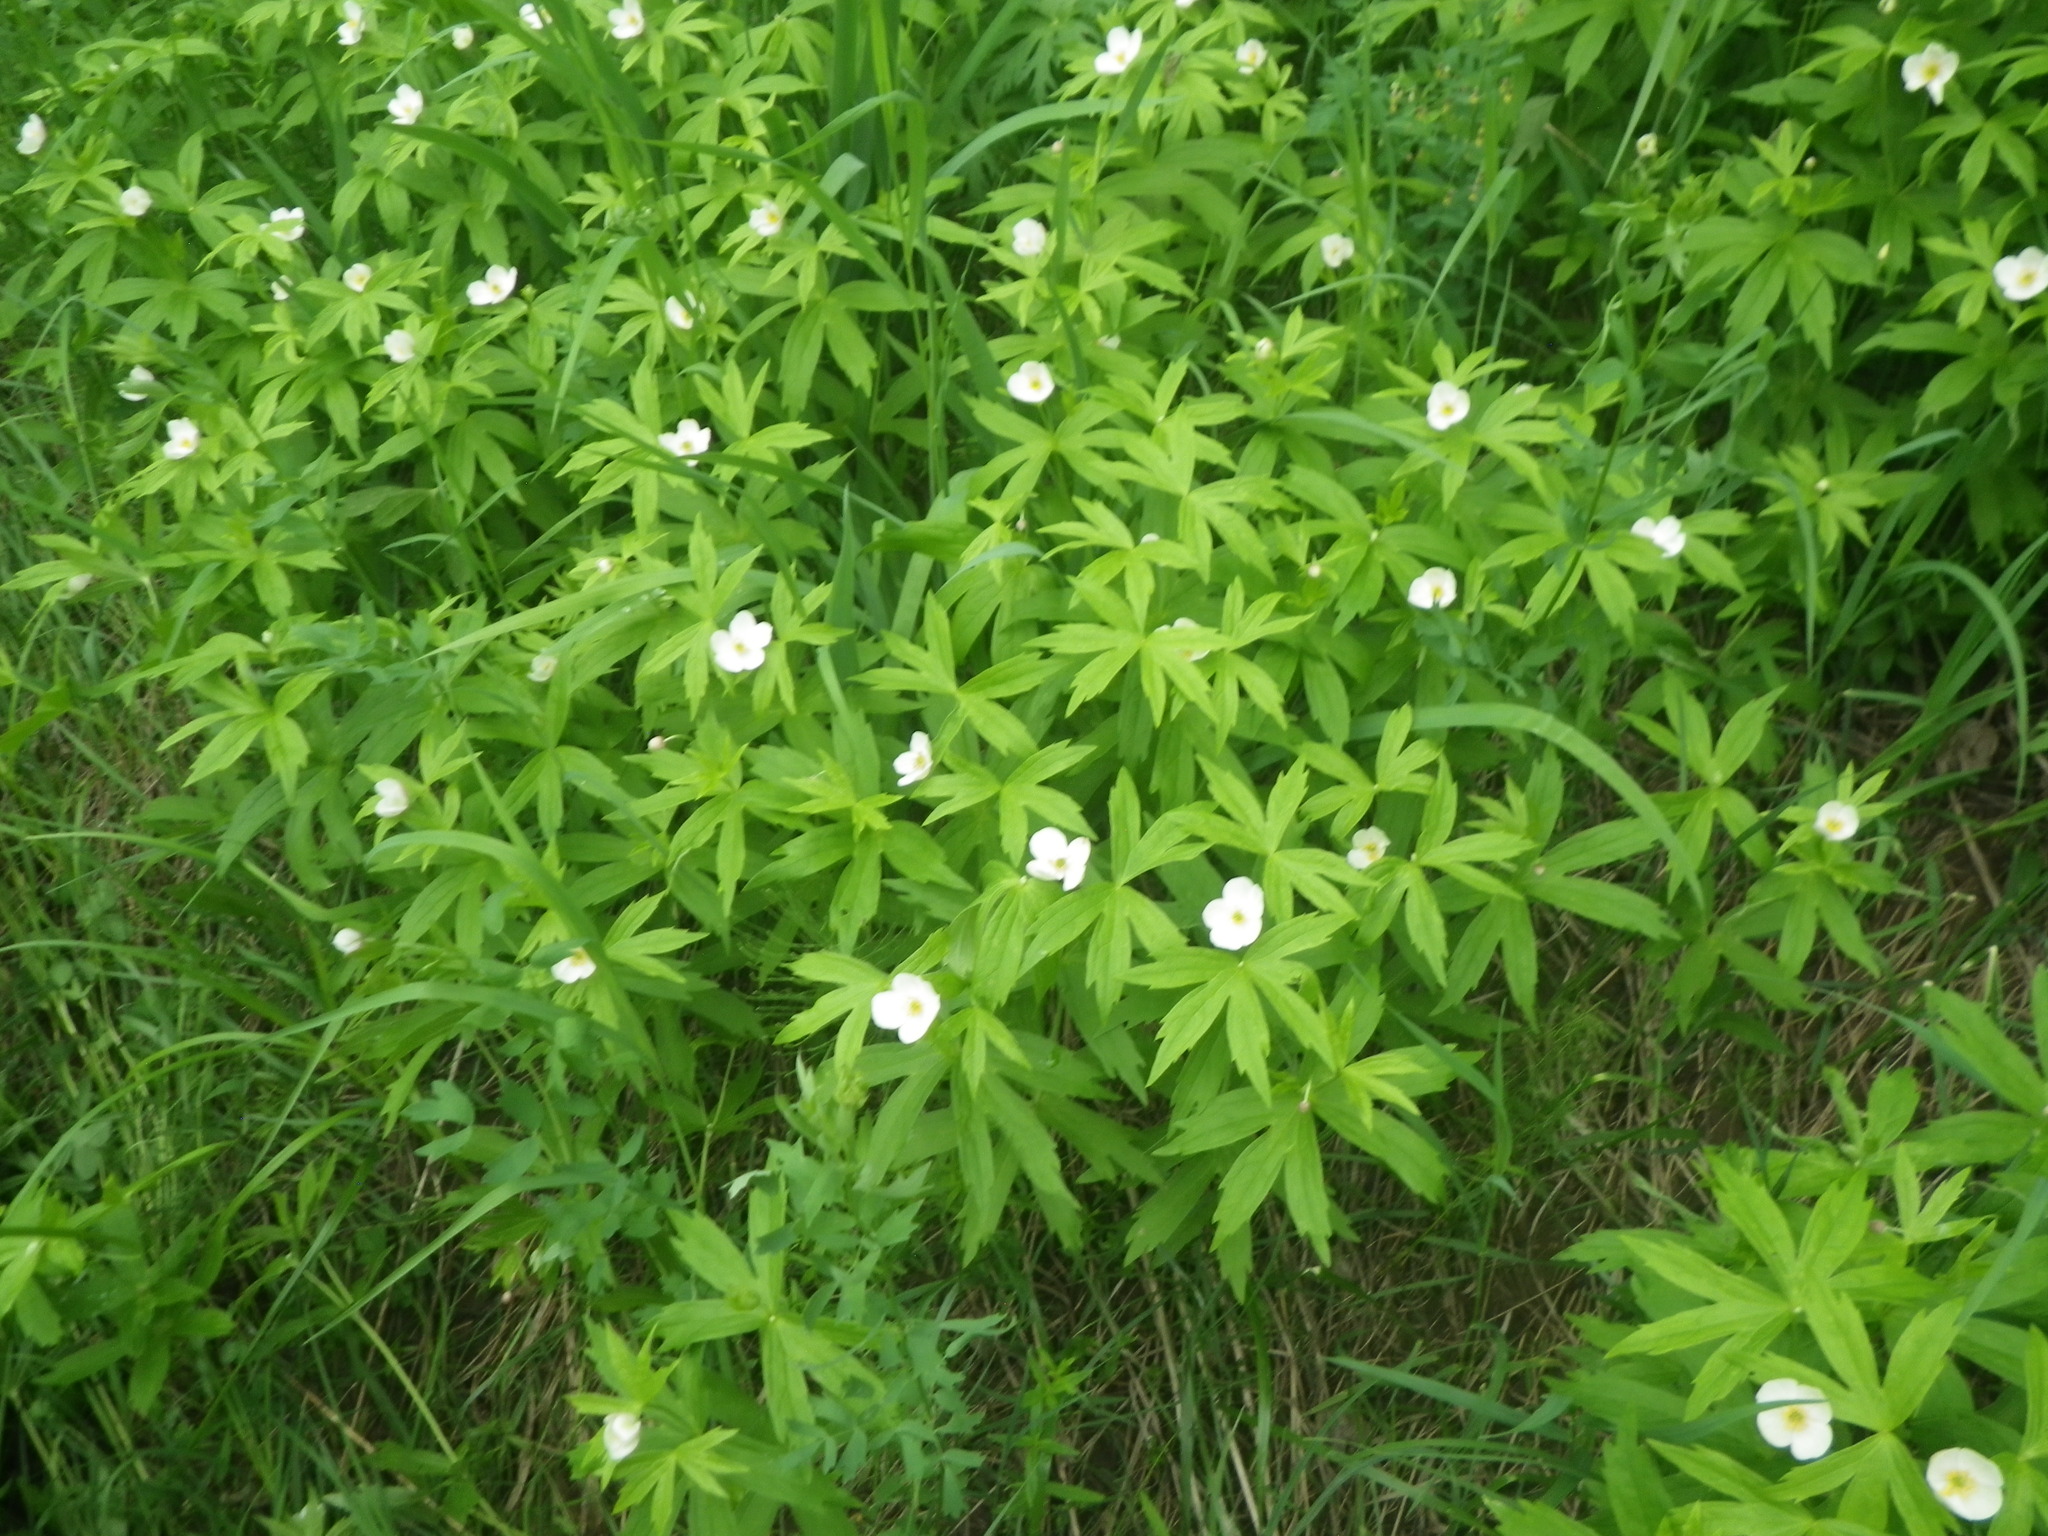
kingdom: Plantae
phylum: Tracheophyta
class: Magnoliopsida
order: Ranunculales
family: Ranunculaceae
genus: Anemonastrum
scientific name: Anemonastrum dichotomum
